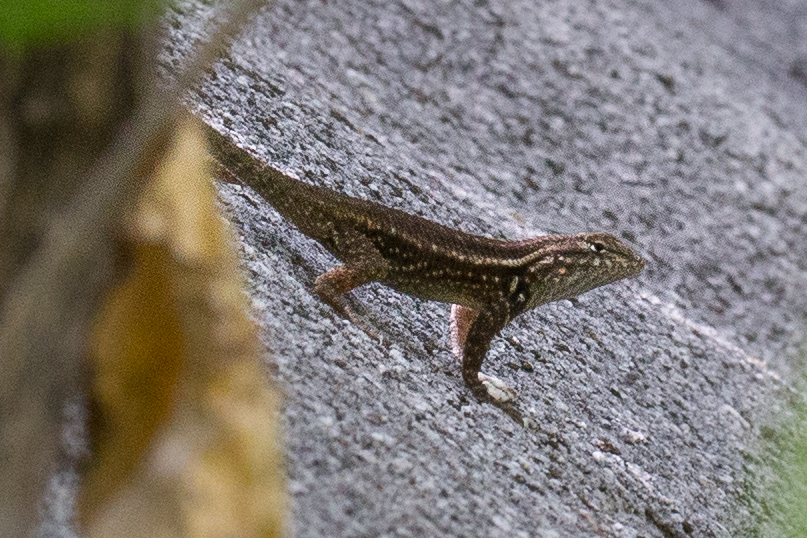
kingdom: Animalia
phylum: Chordata
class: Squamata
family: Phrynosomatidae
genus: Sceloporus
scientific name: Sceloporus licki
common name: Cape arboreal spiny lizard
